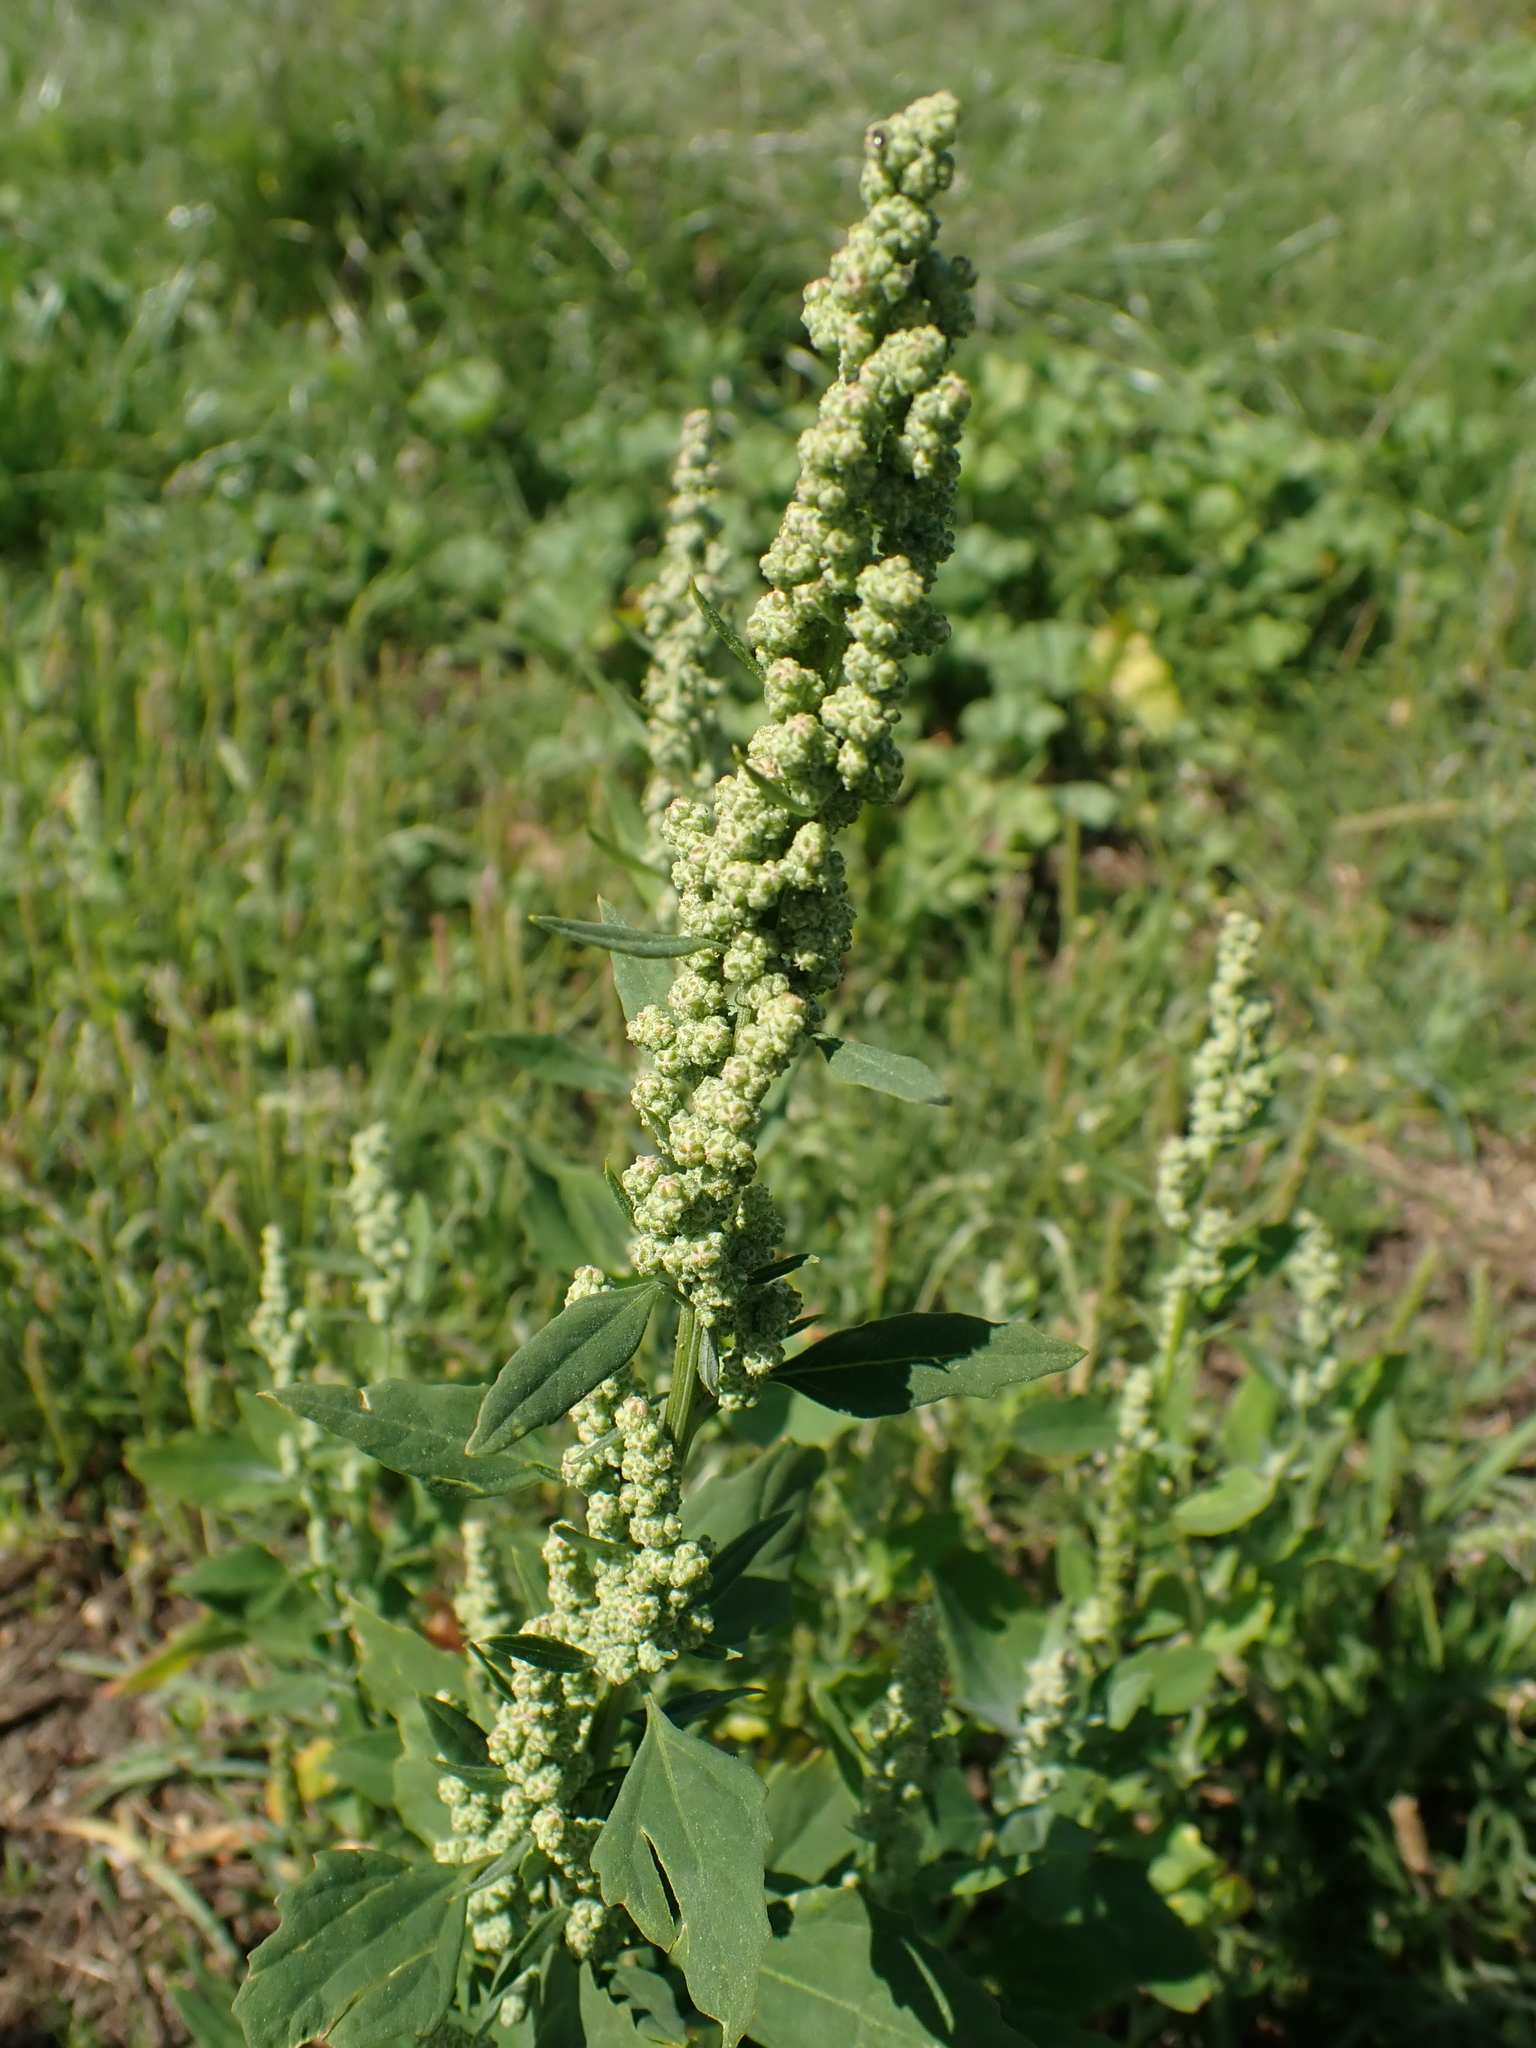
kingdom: Plantae
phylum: Tracheophyta
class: Magnoliopsida
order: Caryophyllales
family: Amaranthaceae
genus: Chenopodium
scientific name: Chenopodium album
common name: Fat-hen
